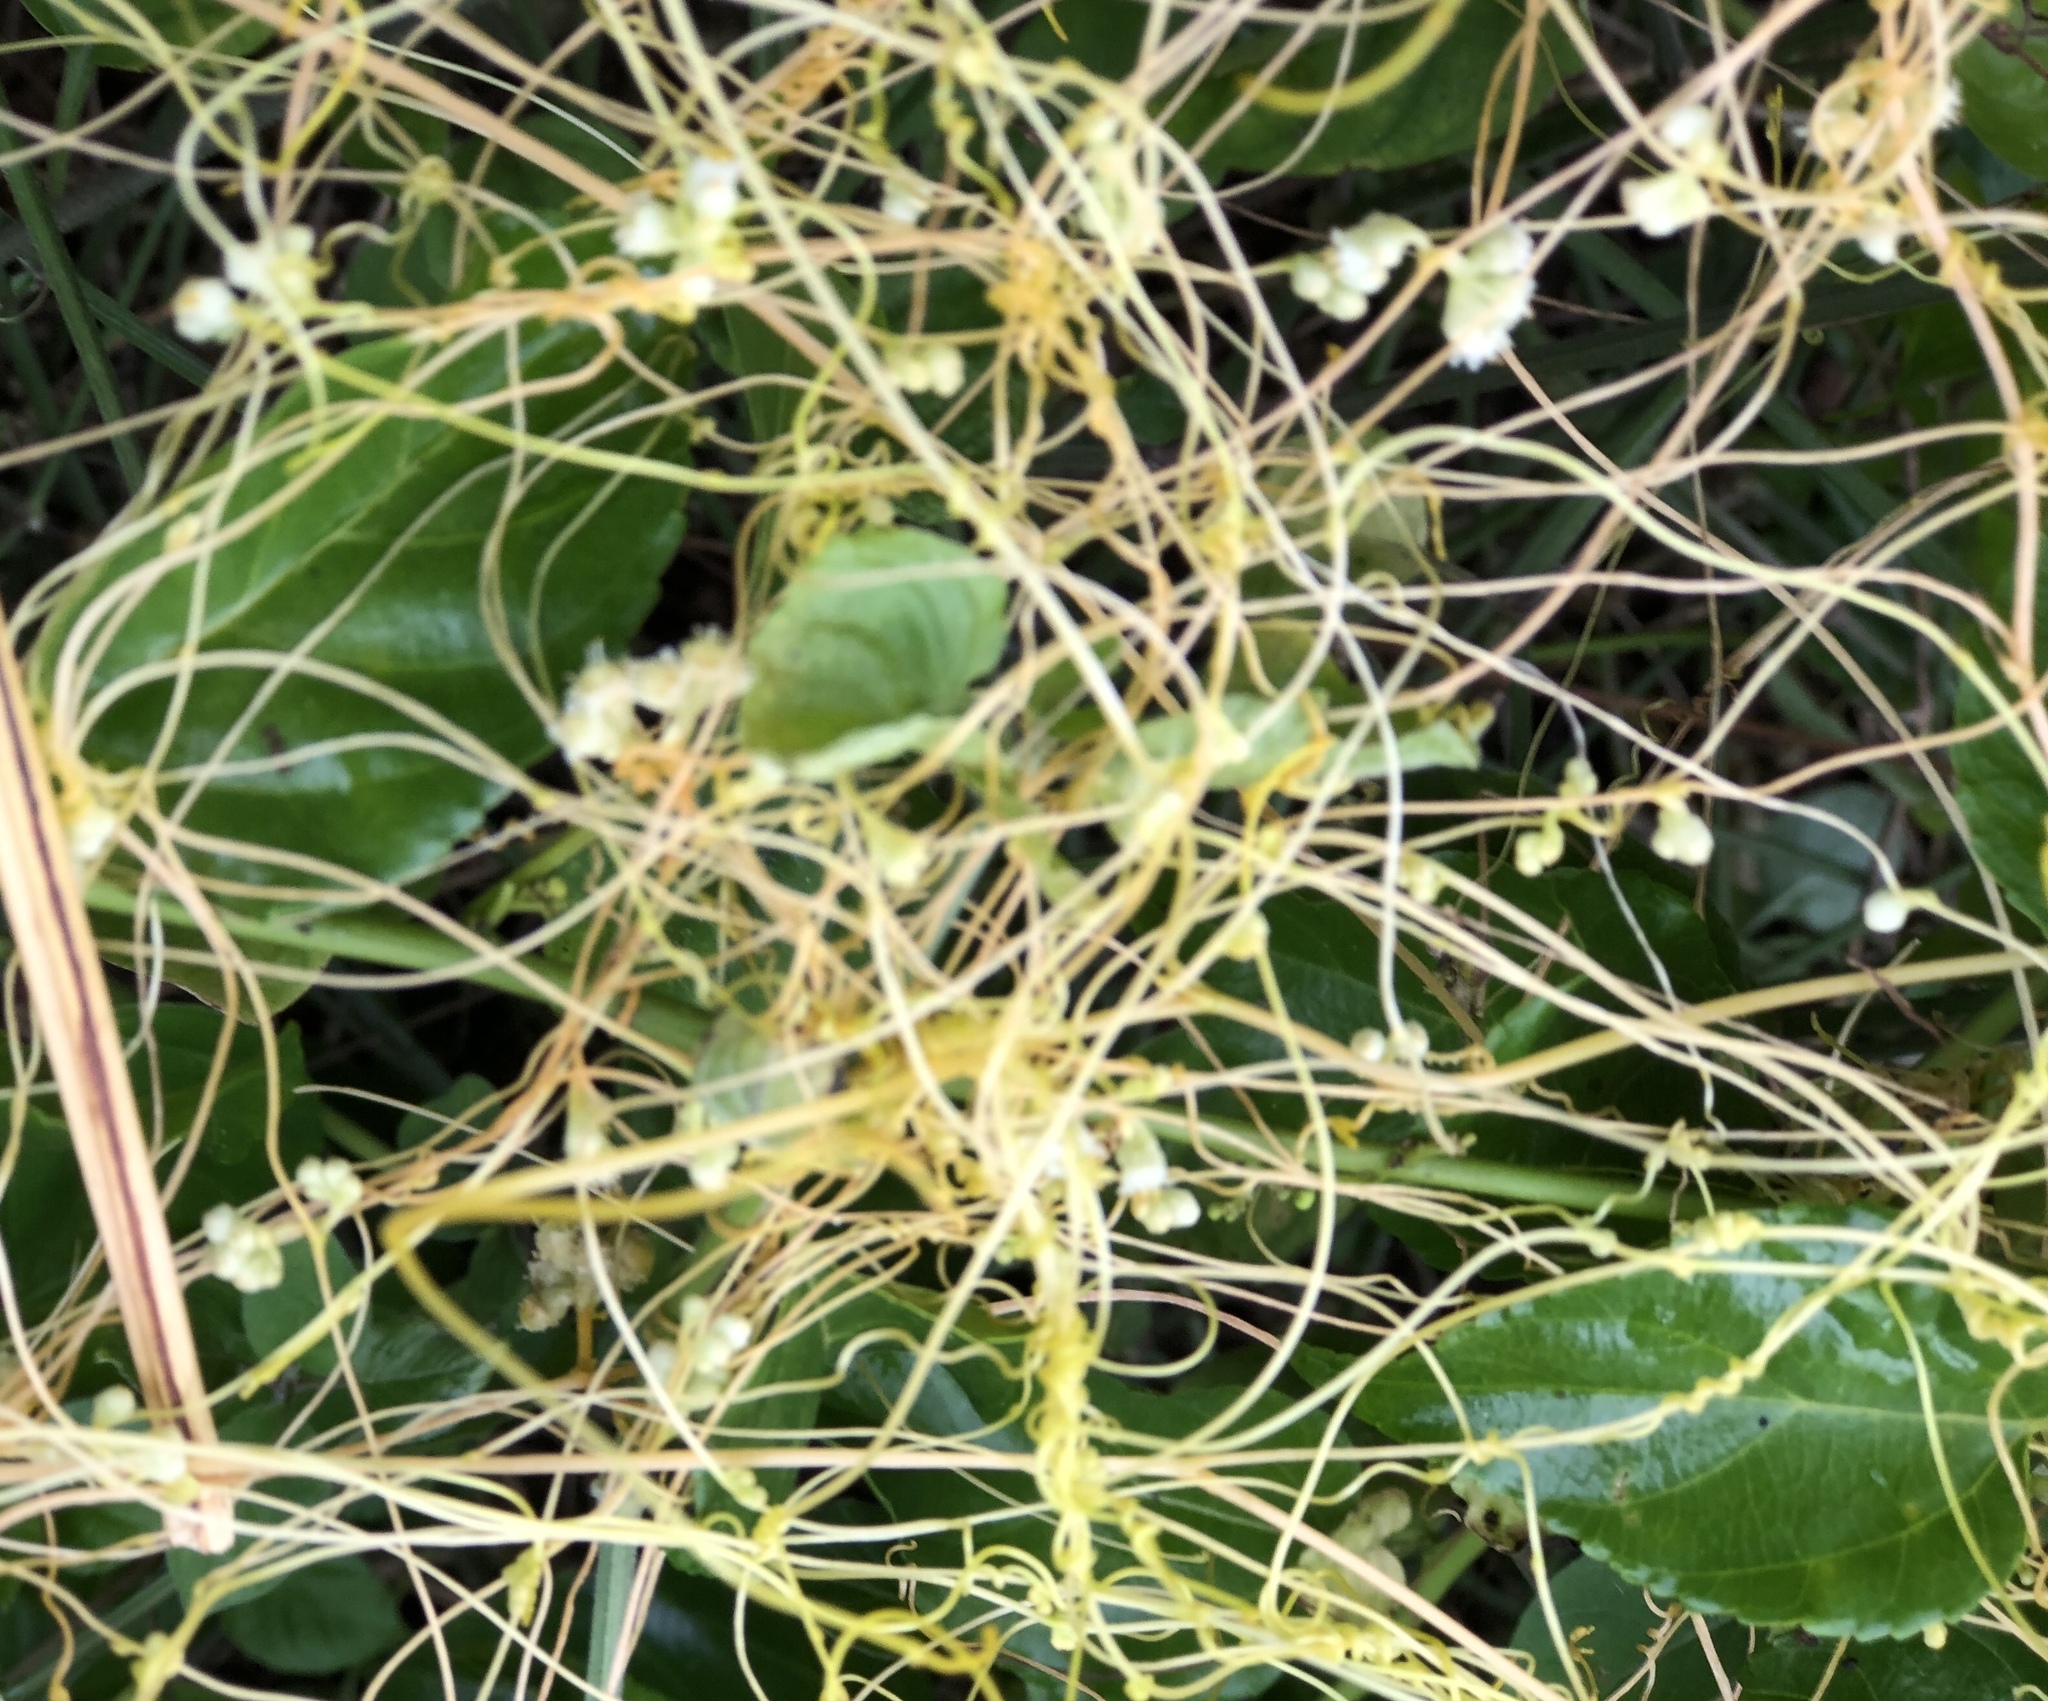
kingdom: Plantae
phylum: Tracheophyta
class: Magnoliopsida
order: Solanales
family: Convolvulaceae
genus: Cuscuta
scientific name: Cuscuta sandwichiana
